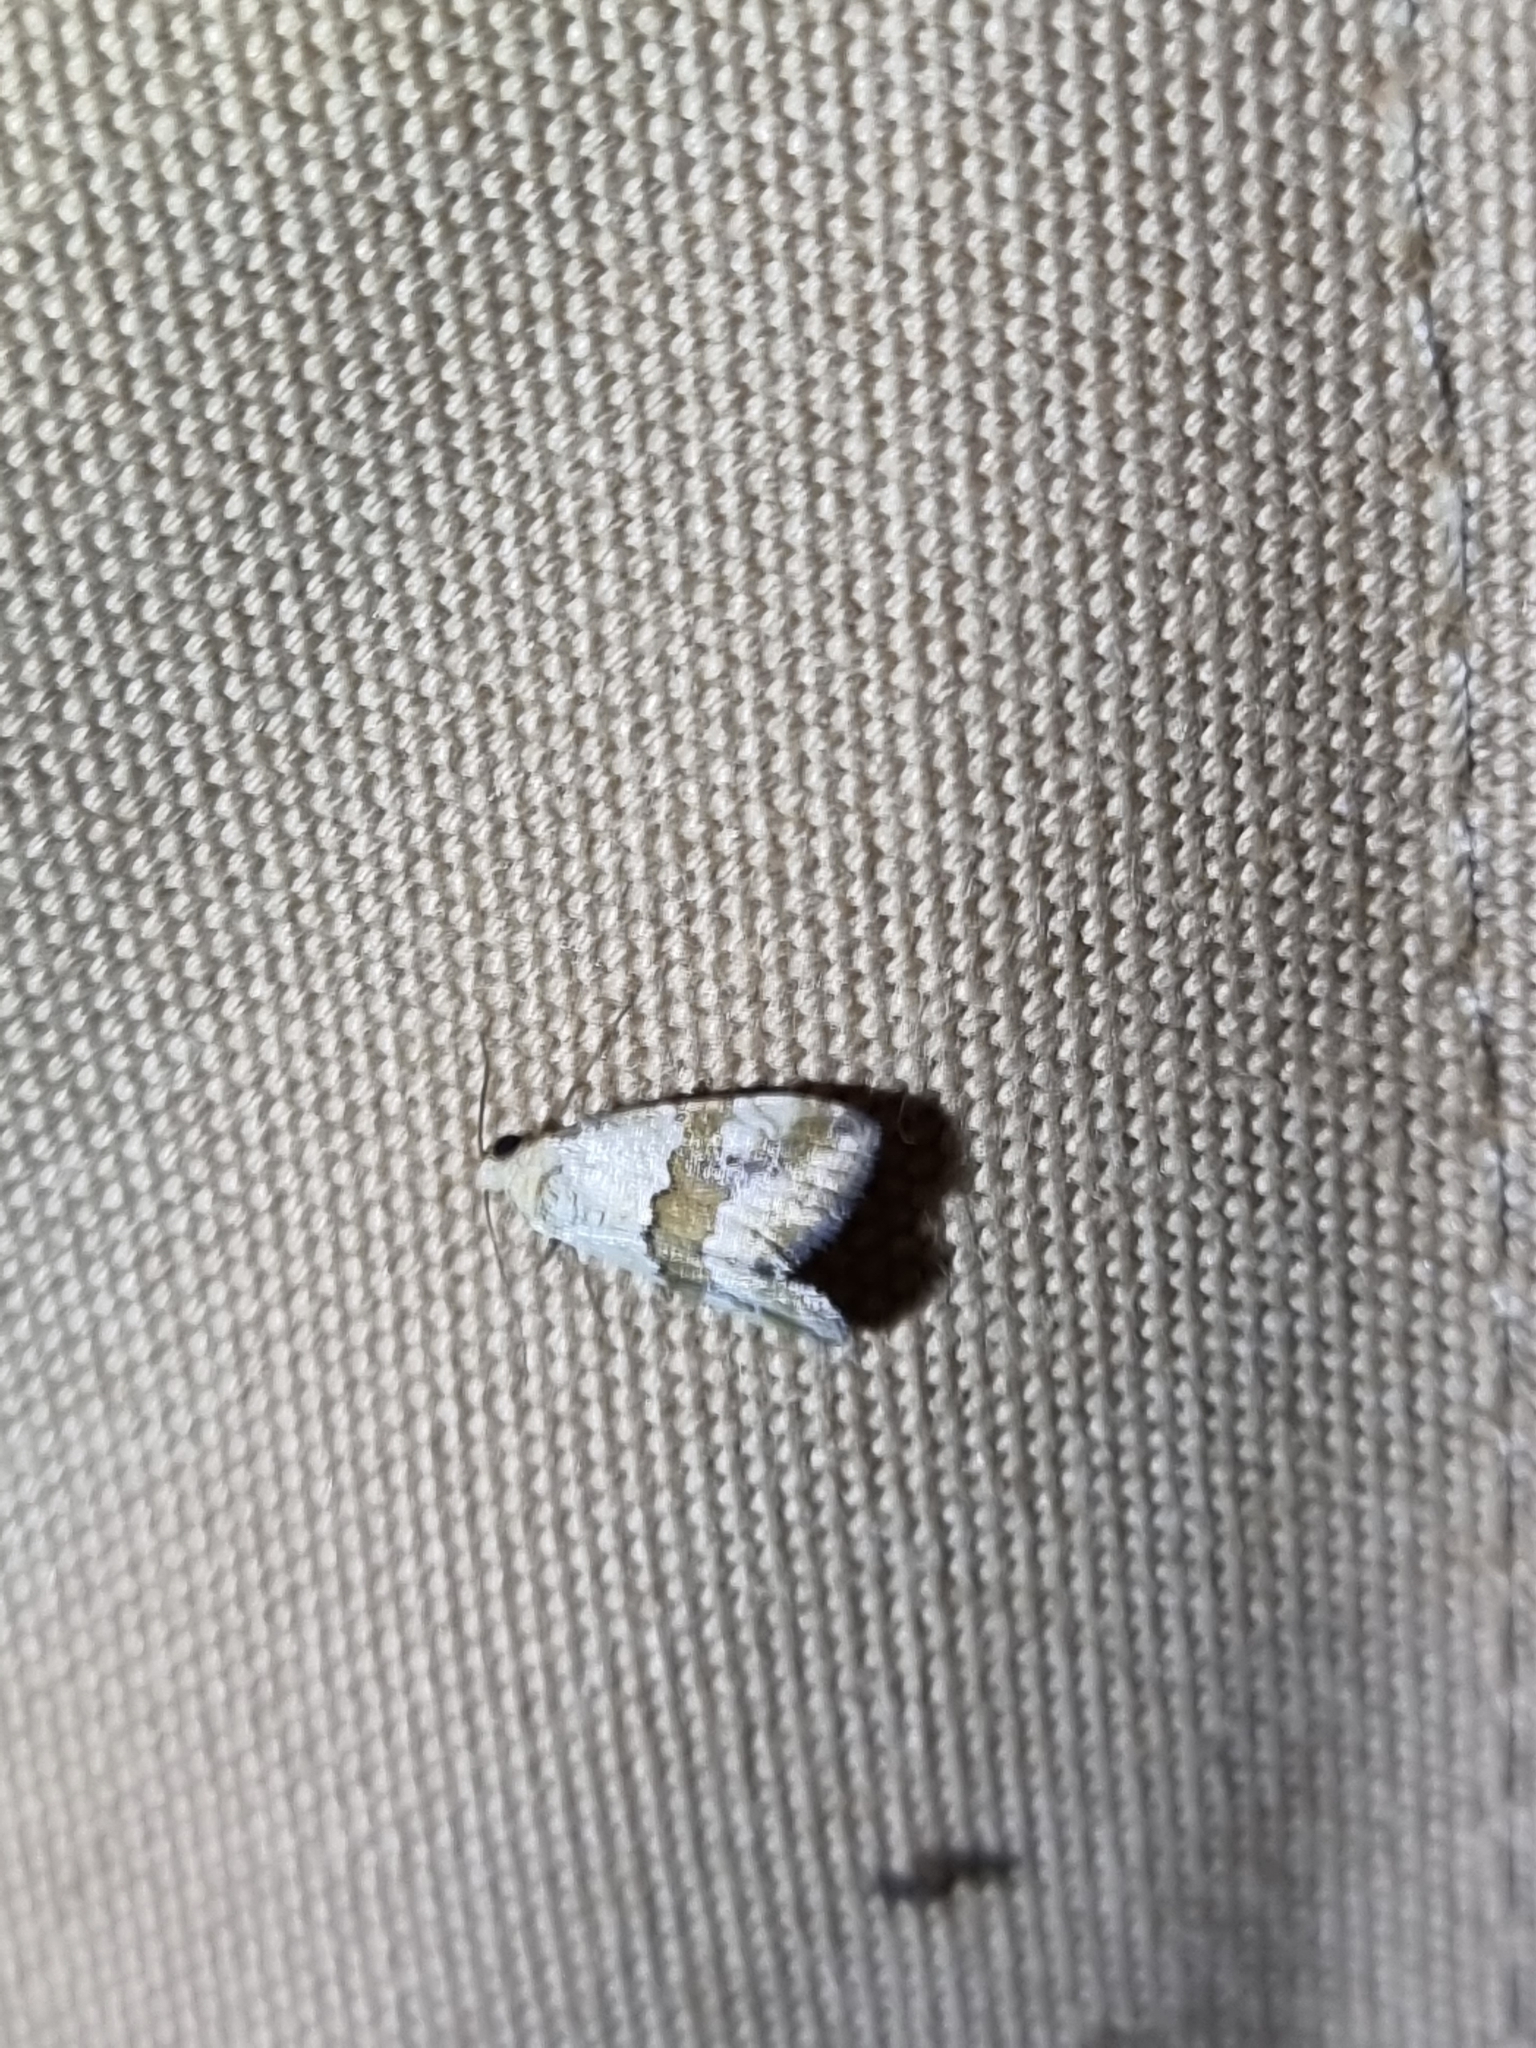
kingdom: Animalia
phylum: Arthropoda
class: Insecta
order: Lepidoptera
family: Noctuidae
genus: Maliattha
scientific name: Maliattha amorpha
